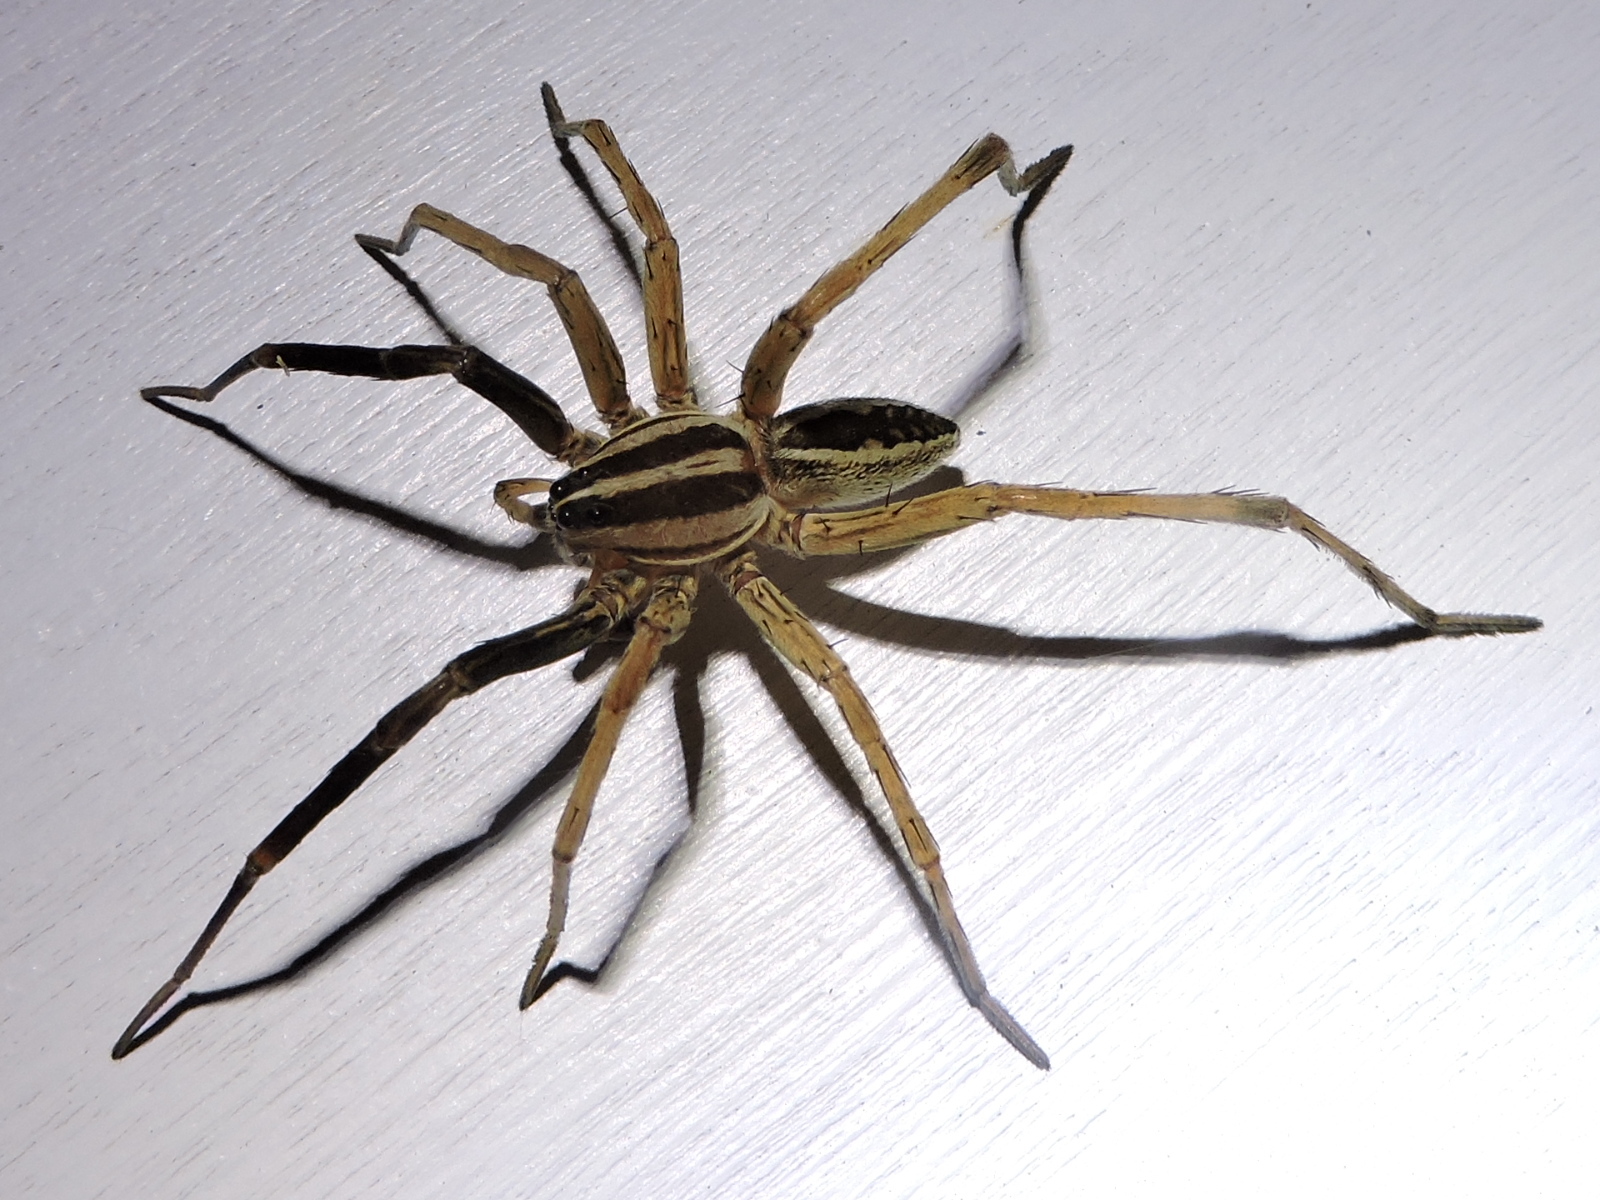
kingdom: Animalia
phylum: Arthropoda
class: Arachnida
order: Araneae
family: Lycosidae
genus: Rabidosa
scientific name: Rabidosa rabida
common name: Rabid wolf spider
